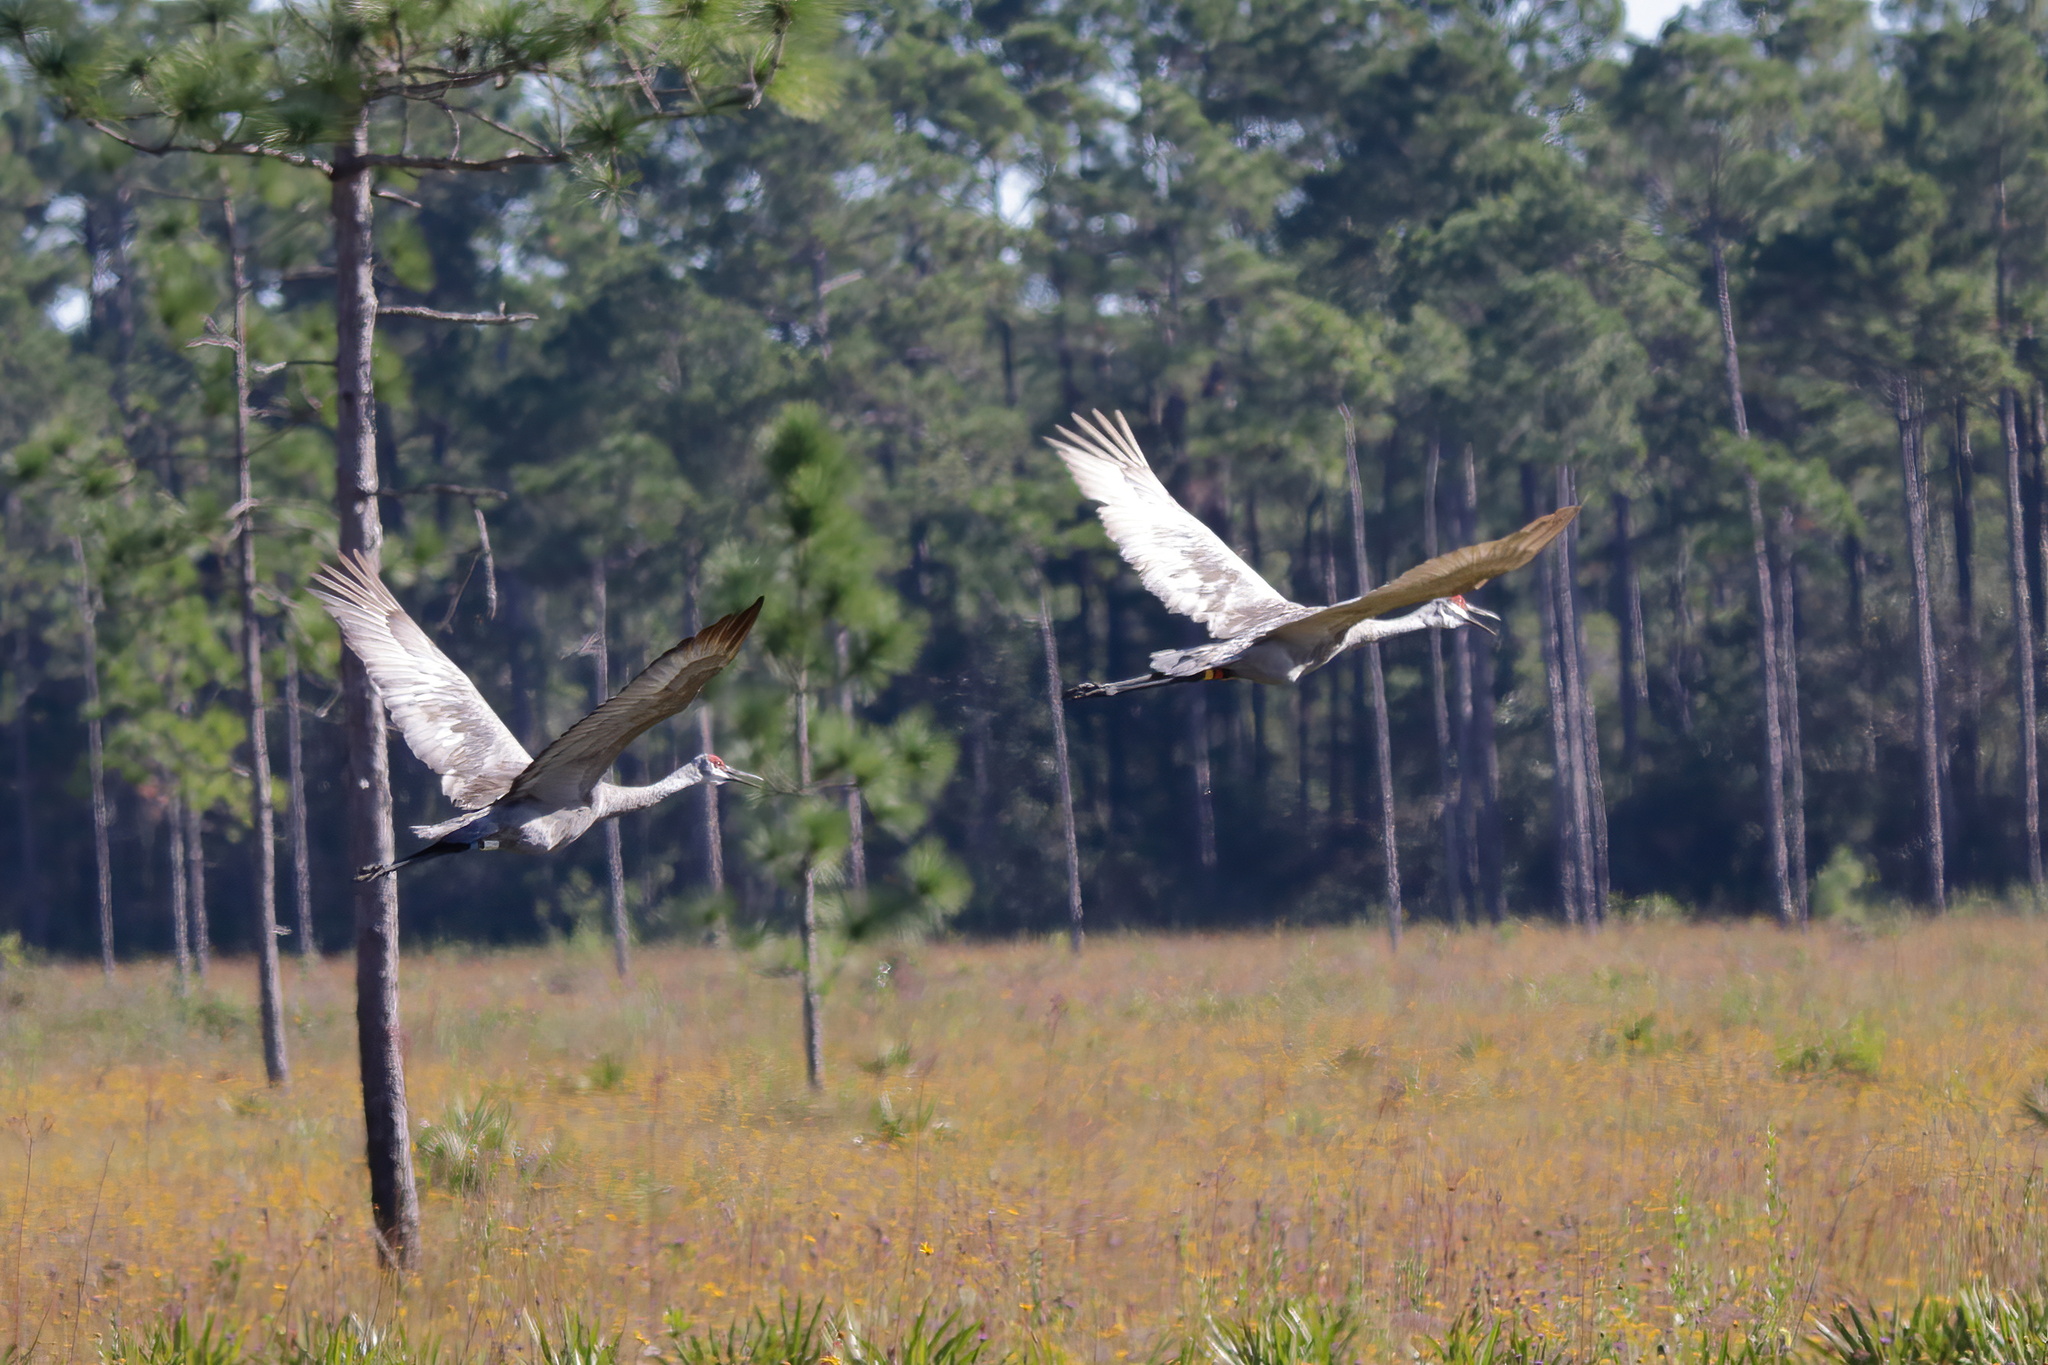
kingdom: Animalia
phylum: Chordata
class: Aves
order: Gruiformes
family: Gruidae
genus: Grus
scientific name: Grus canadensis
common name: Sandhill crane
